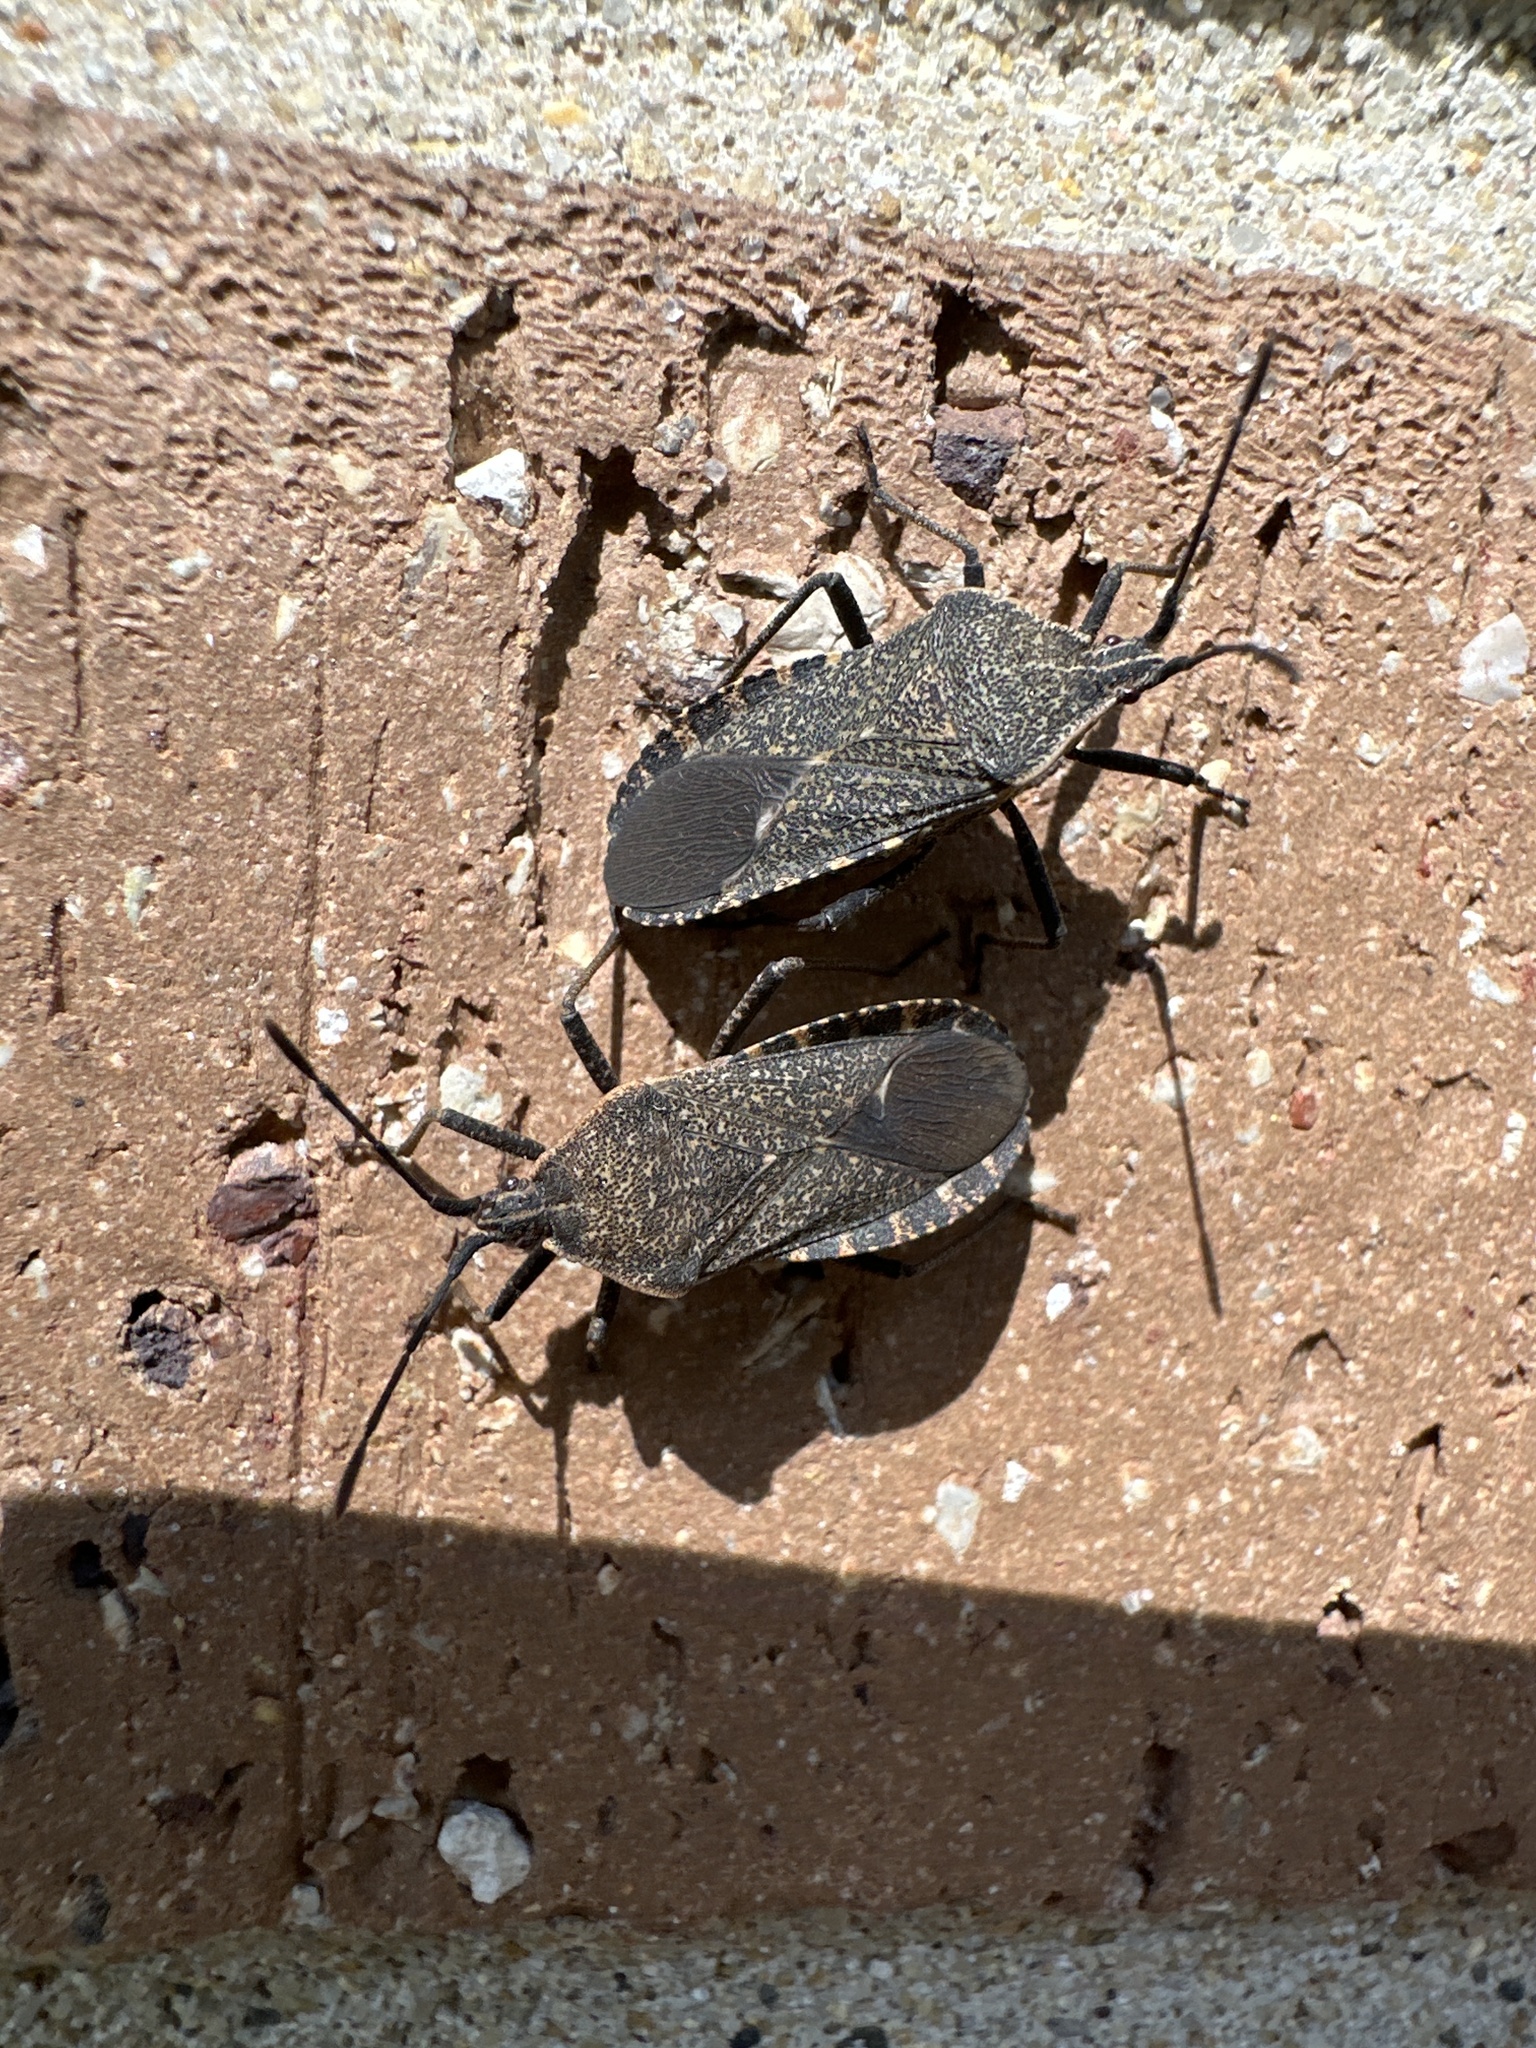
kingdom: Animalia
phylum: Arthropoda
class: Insecta
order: Hemiptera
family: Coreidae
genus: Anasa
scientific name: Anasa tristis
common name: Squash bug
